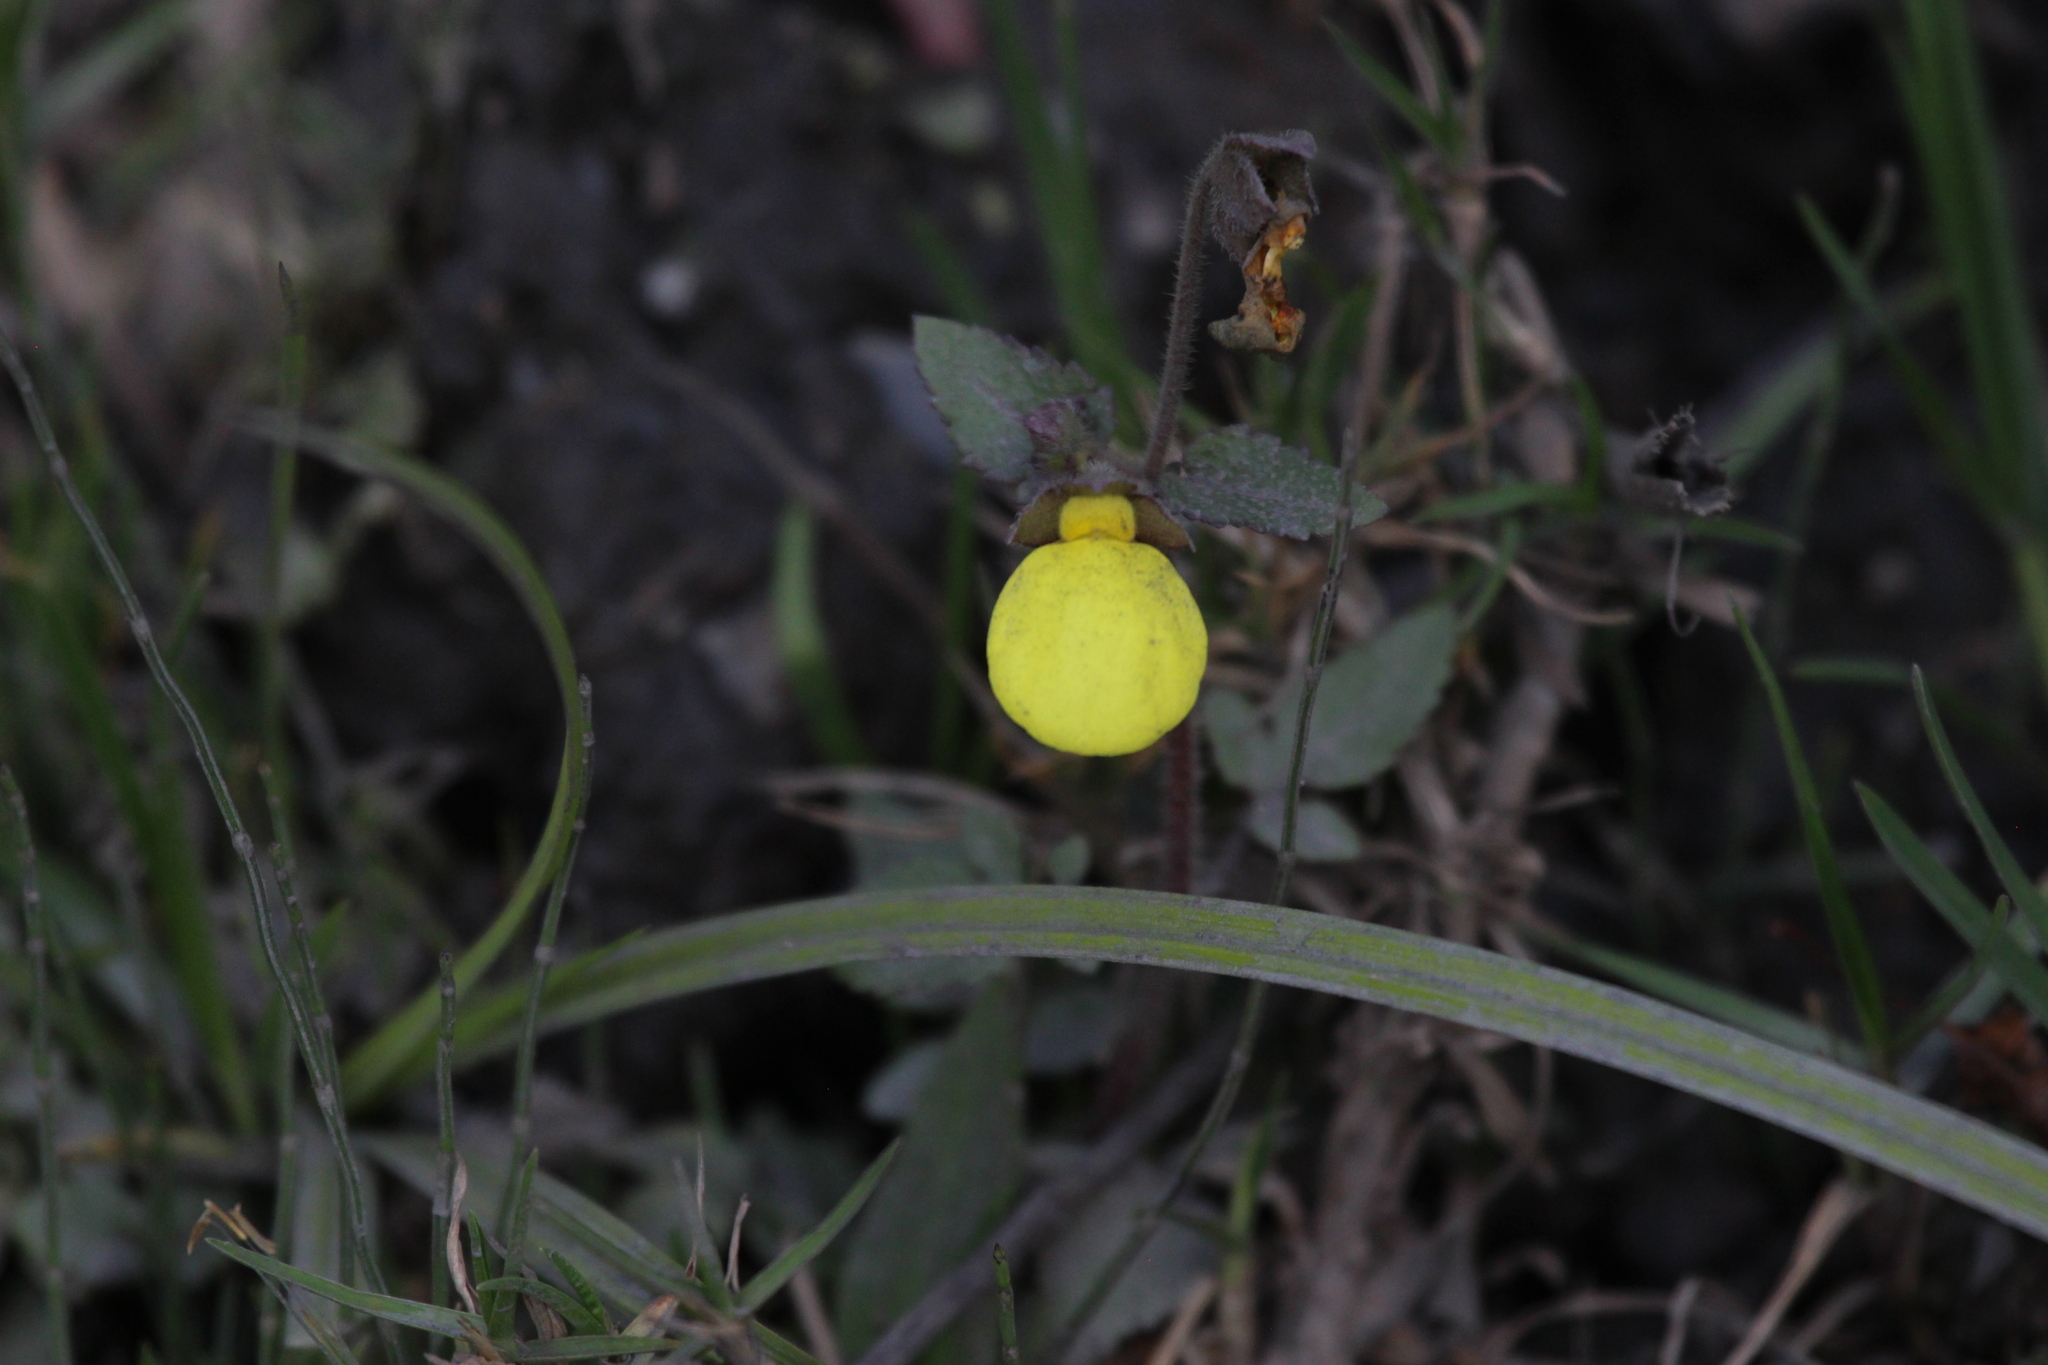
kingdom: Plantae
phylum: Tracheophyta
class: Magnoliopsida
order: Lamiales
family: Calceolariaceae
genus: Calceolaria
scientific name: Calceolaria tripartita
